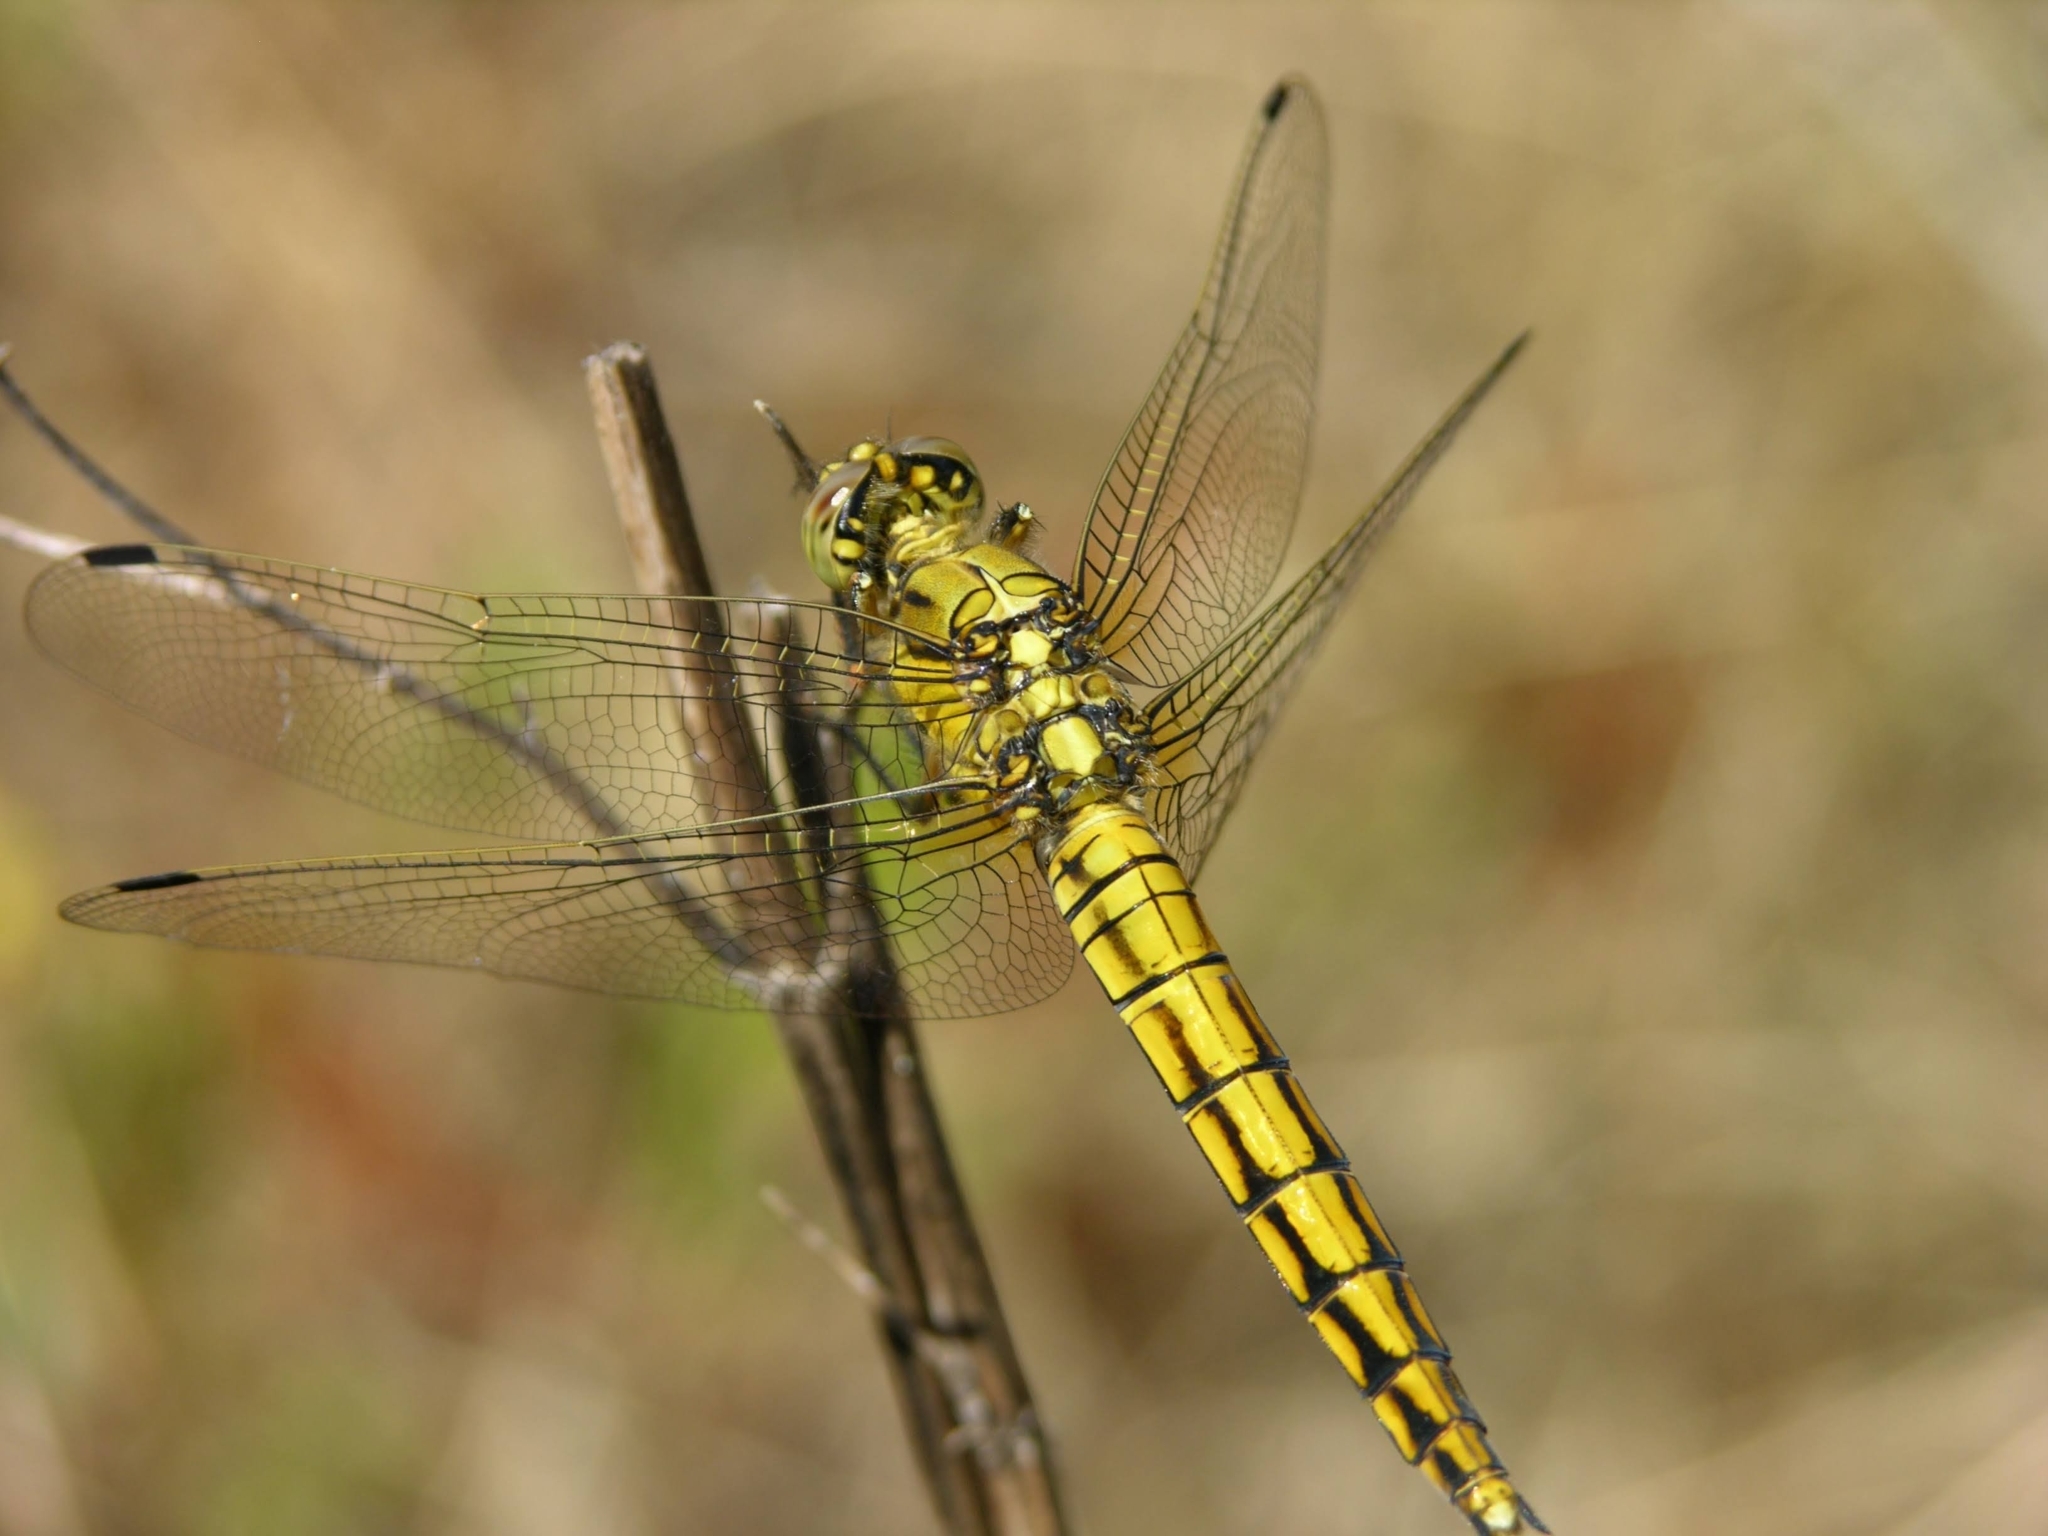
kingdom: Animalia
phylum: Arthropoda
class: Insecta
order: Odonata
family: Libellulidae
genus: Orthetrum
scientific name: Orthetrum cancellatum
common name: Black-tailed skimmer
